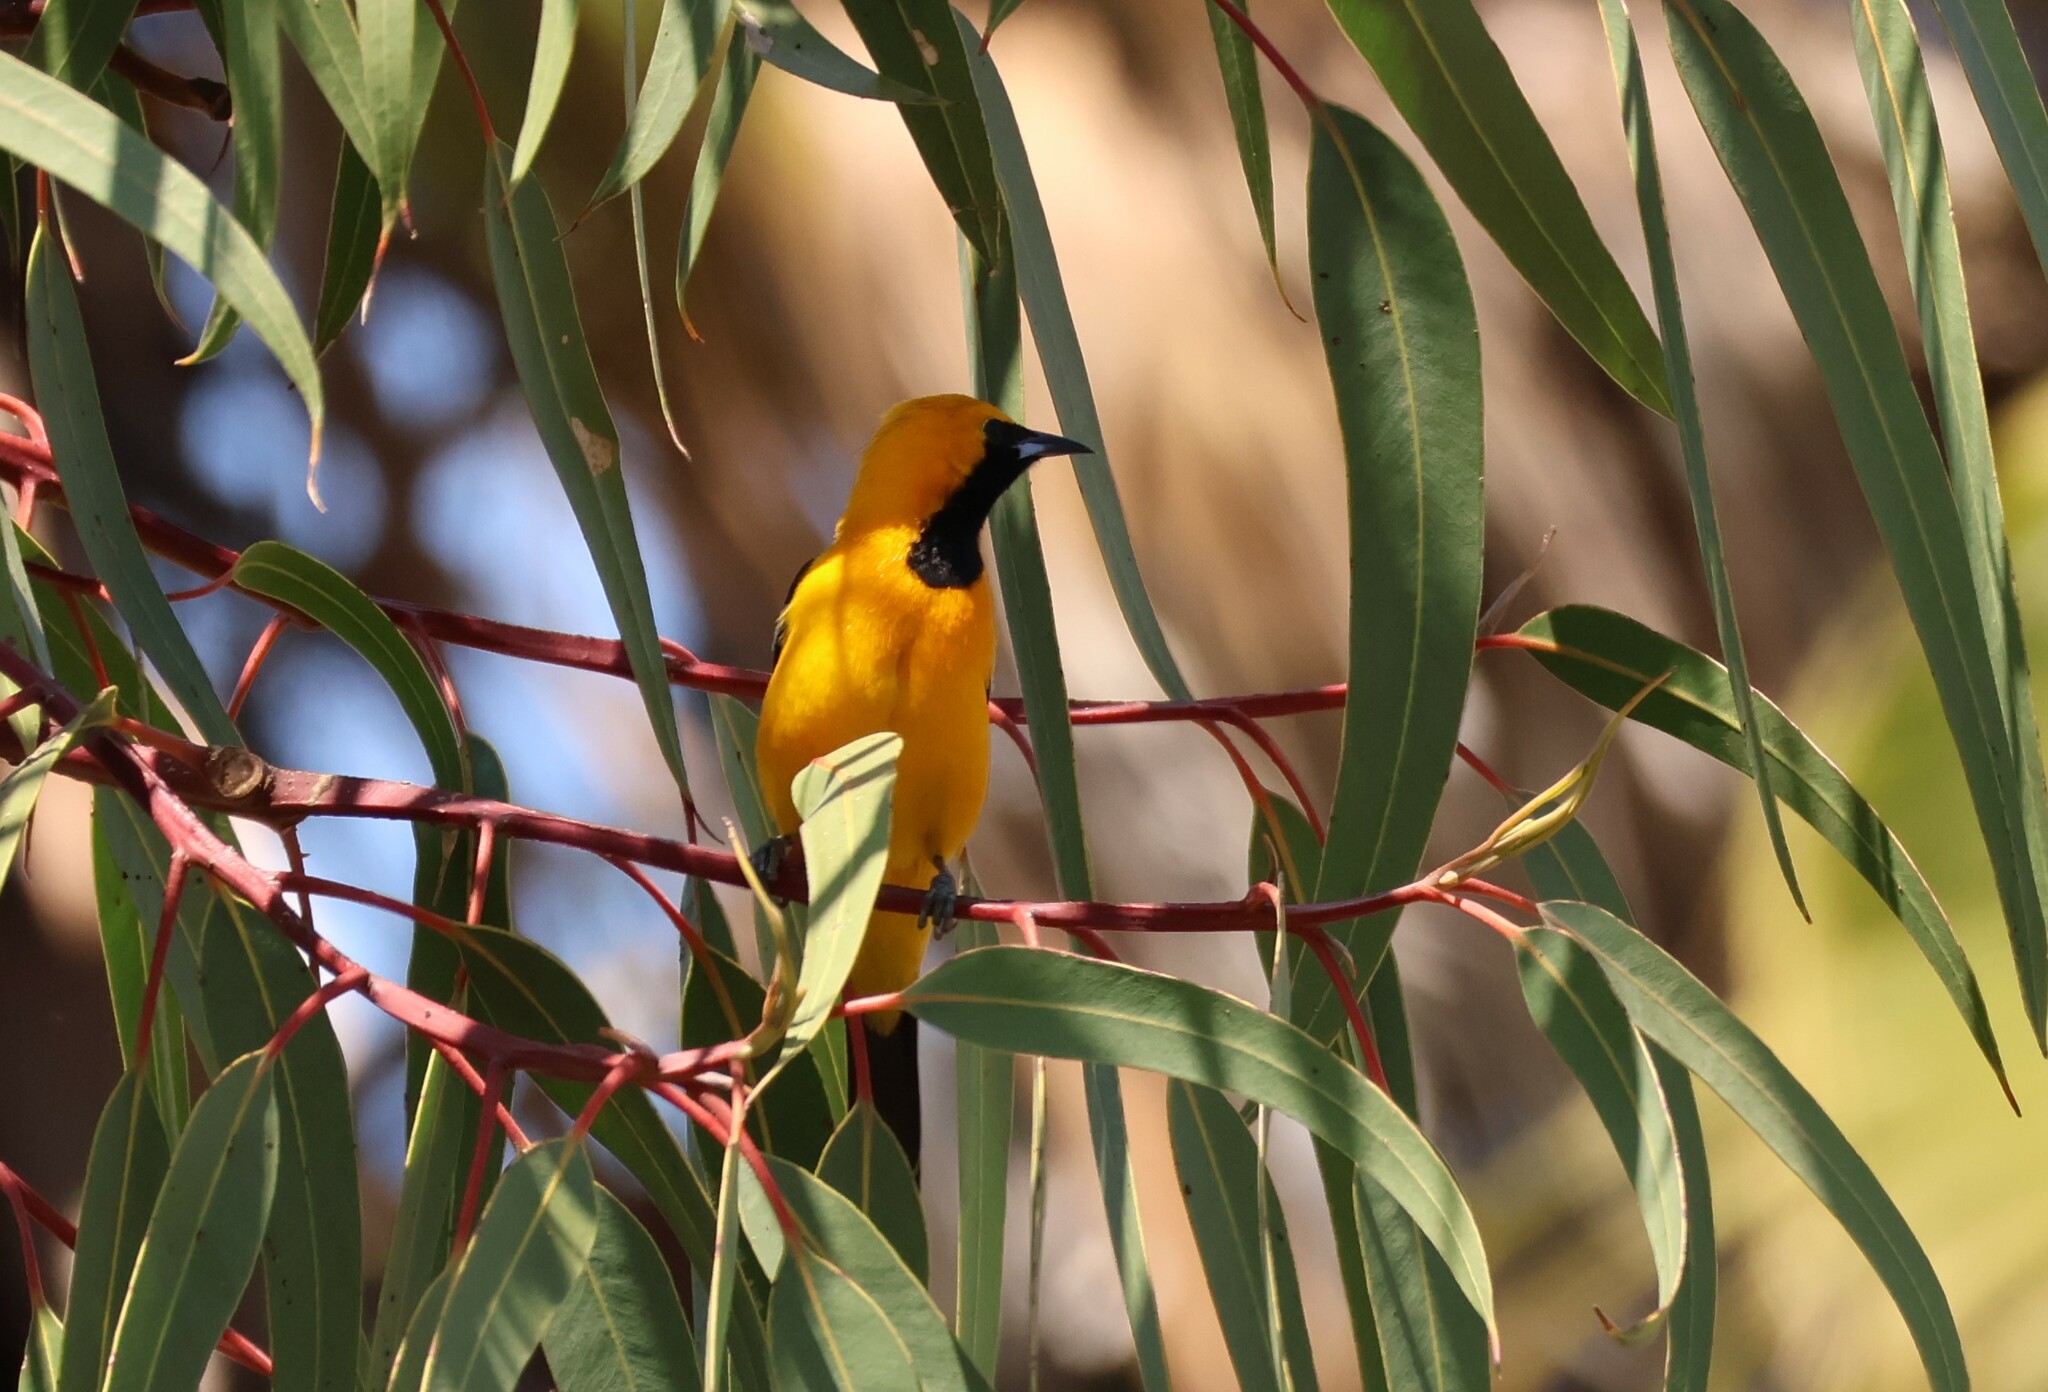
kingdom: Animalia
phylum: Chordata
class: Aves
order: Passeriformes
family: Icteridae
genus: Icterus
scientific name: Icterus cucullatus
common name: Hooded oriole
